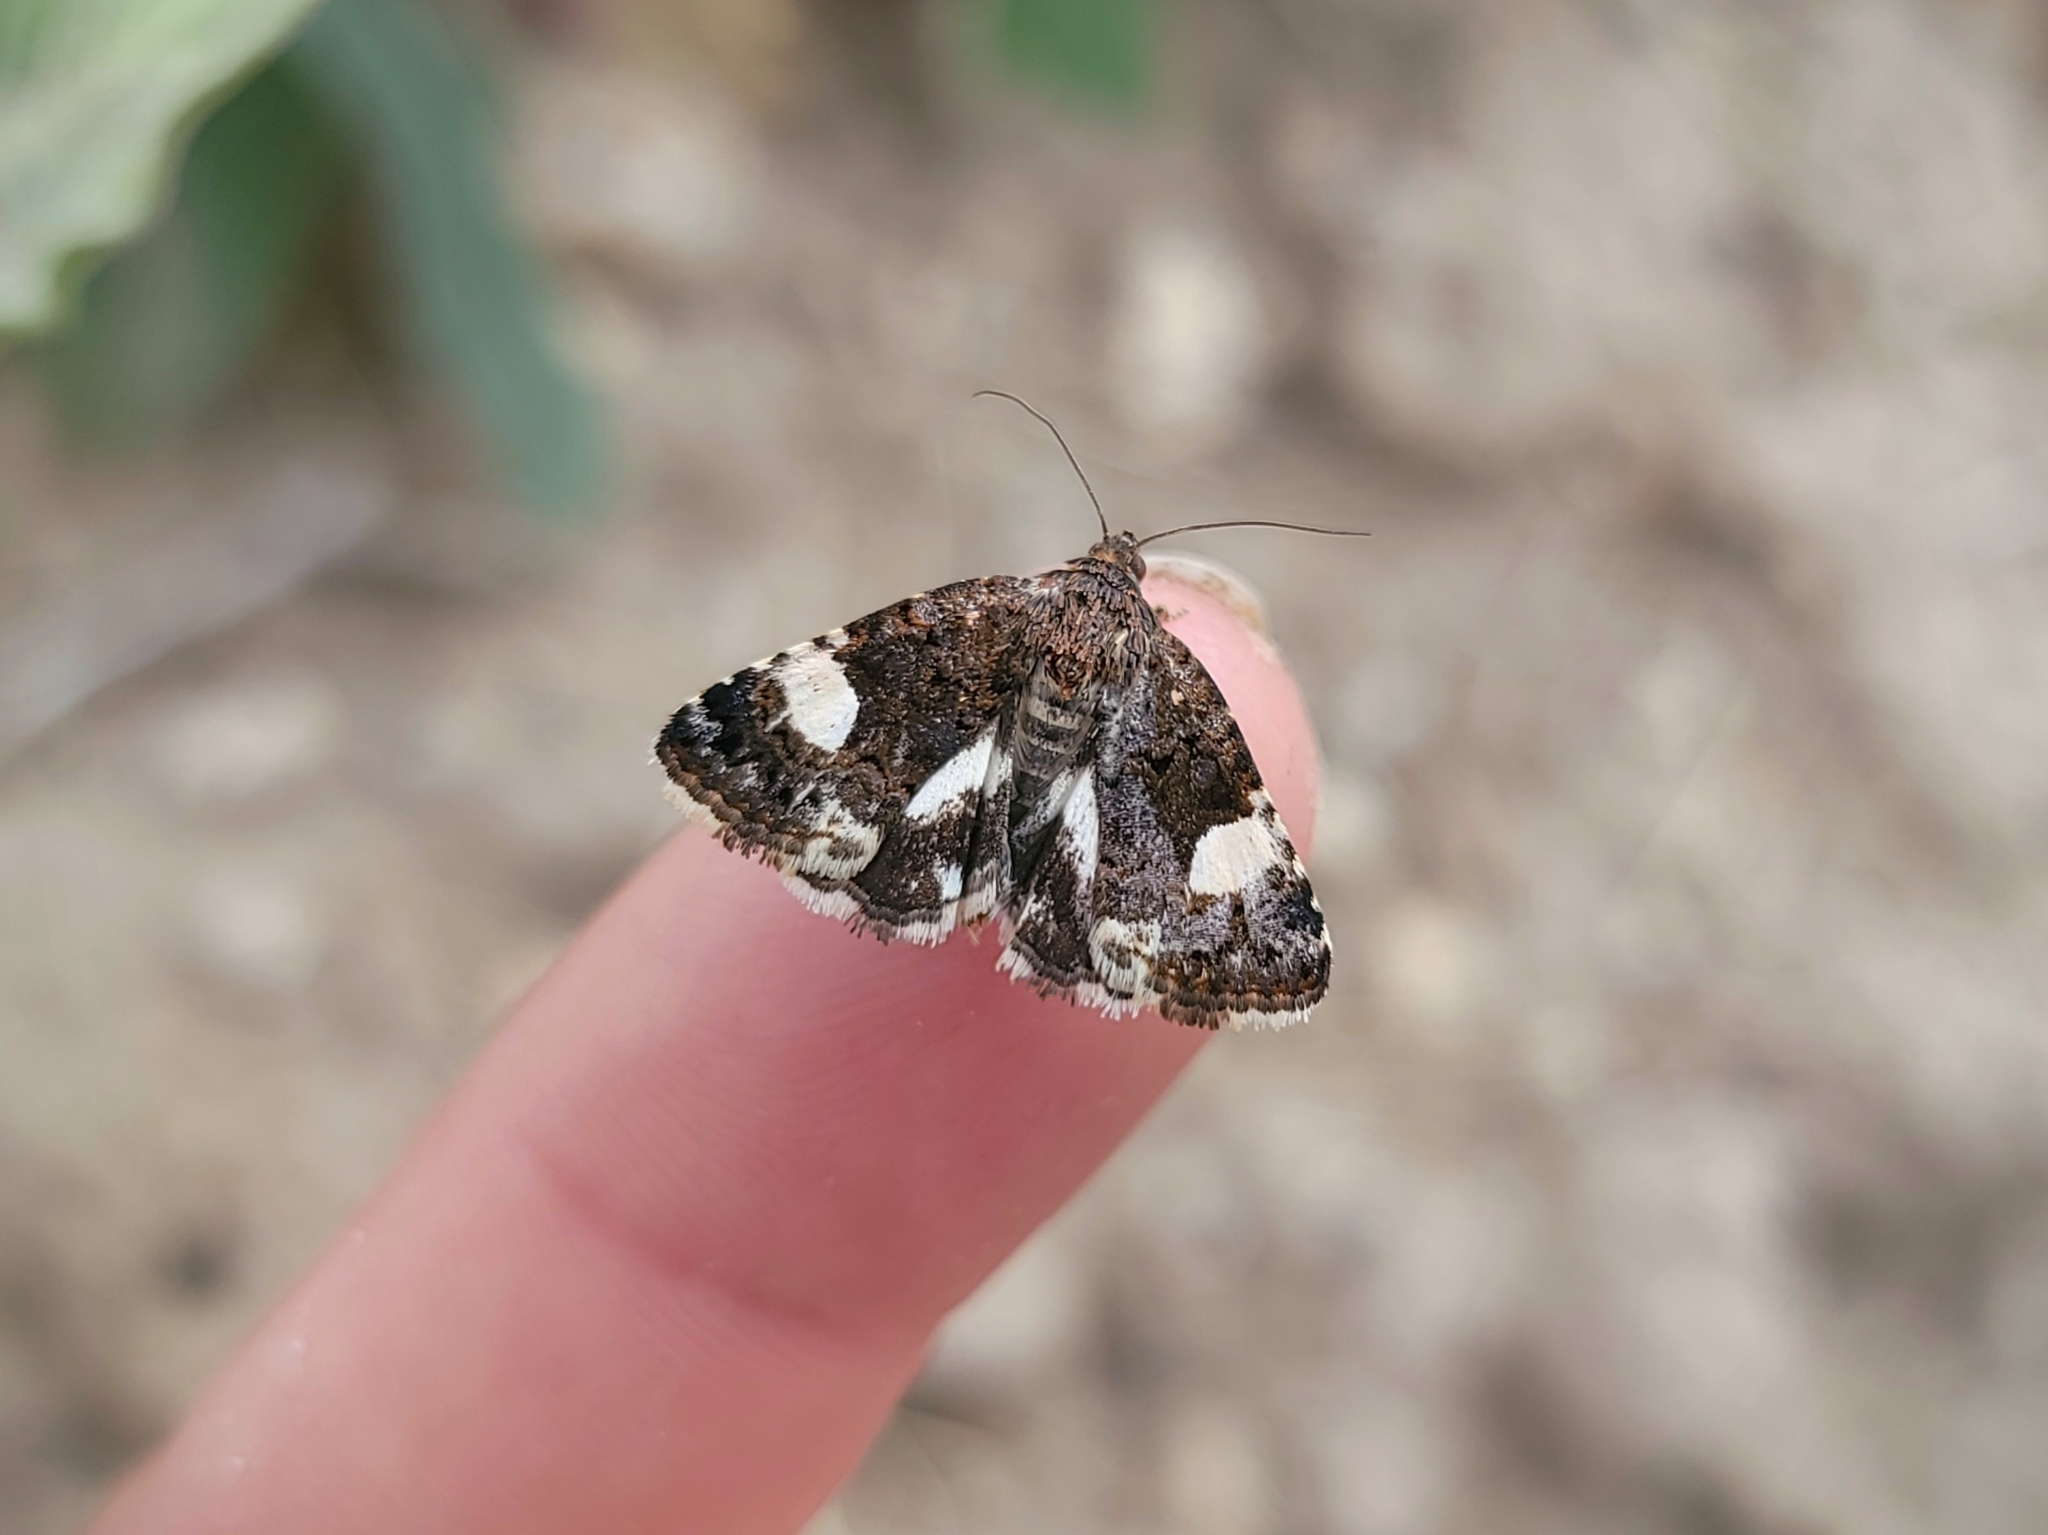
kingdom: Animalia
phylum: Arthropoda
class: Insecta
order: Lepidoptera
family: Erebidae
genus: Tyta
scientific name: Tyta luctuosa
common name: Four-spotted
